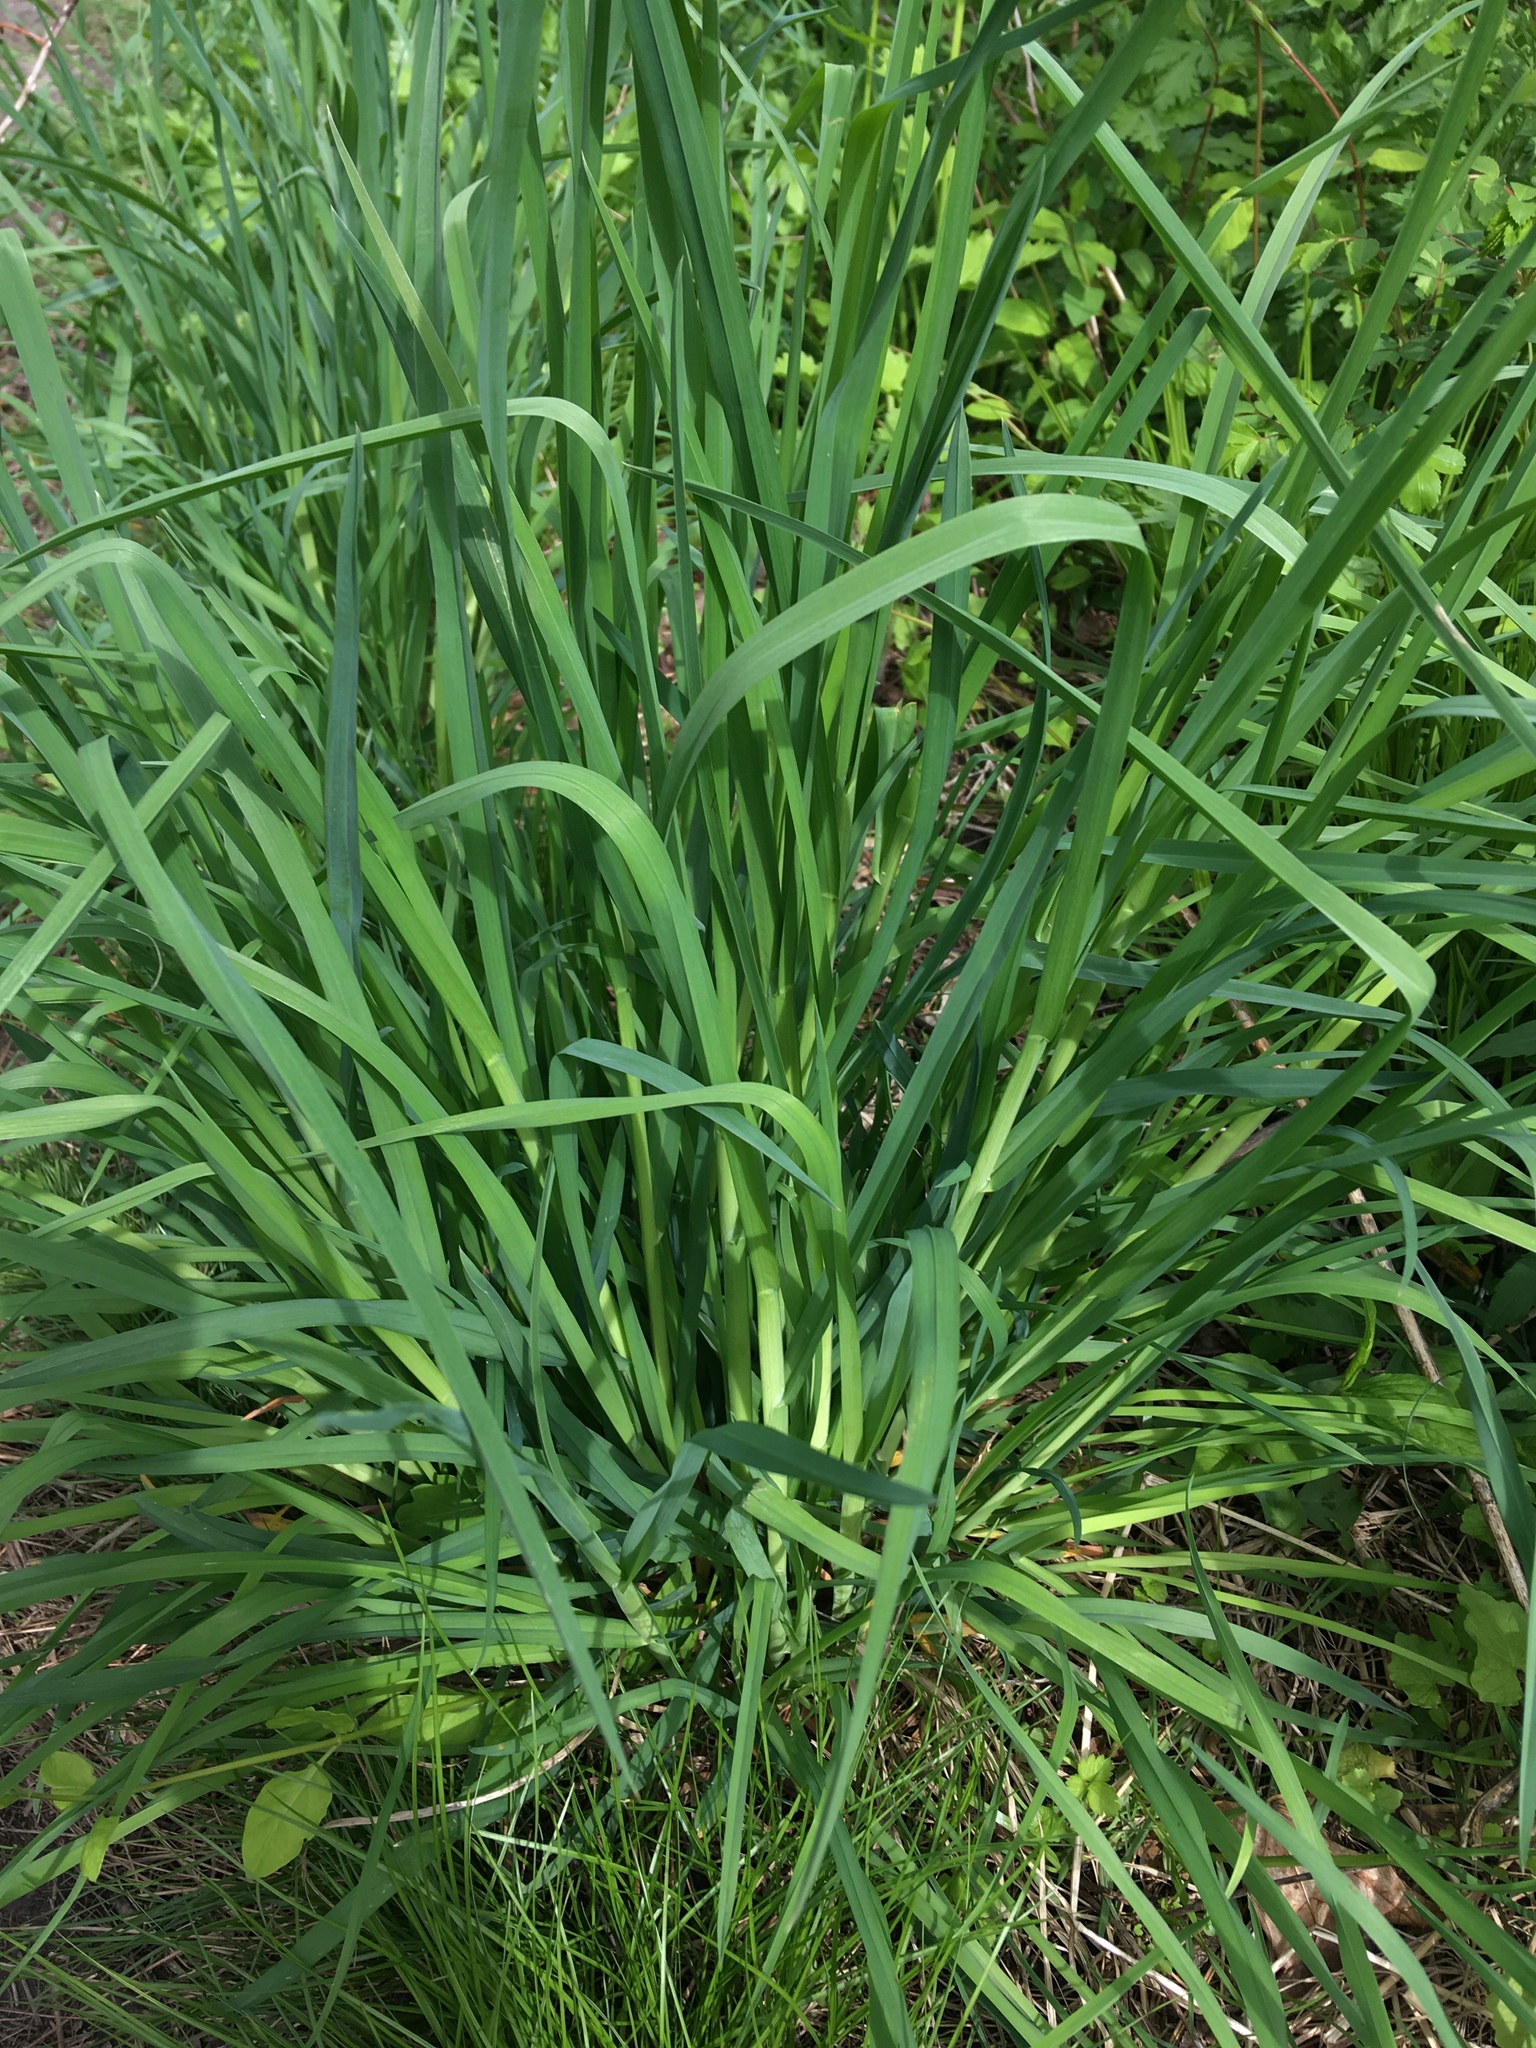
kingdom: Plantae
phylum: Tracheophyta
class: Liliopsida
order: Poales
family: Poaceae
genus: Dactylis
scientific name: Dactylis glomerata
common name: Orchardgrass
